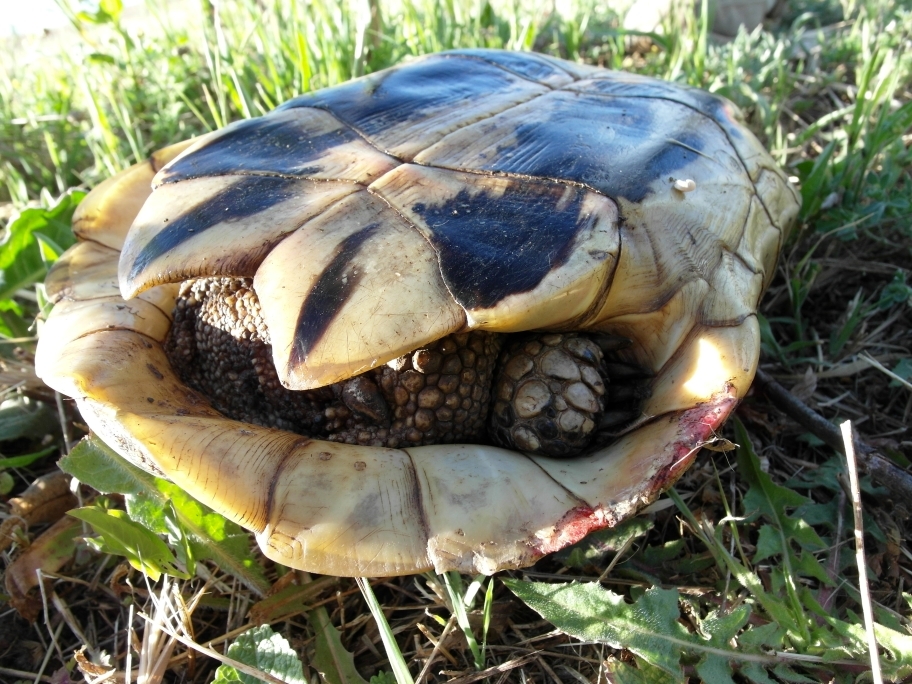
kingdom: Animalia
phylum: Chordata
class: Testudines
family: Testudinidae
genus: Testudo
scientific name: Testudo hermanni
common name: Hermann's tortoise
